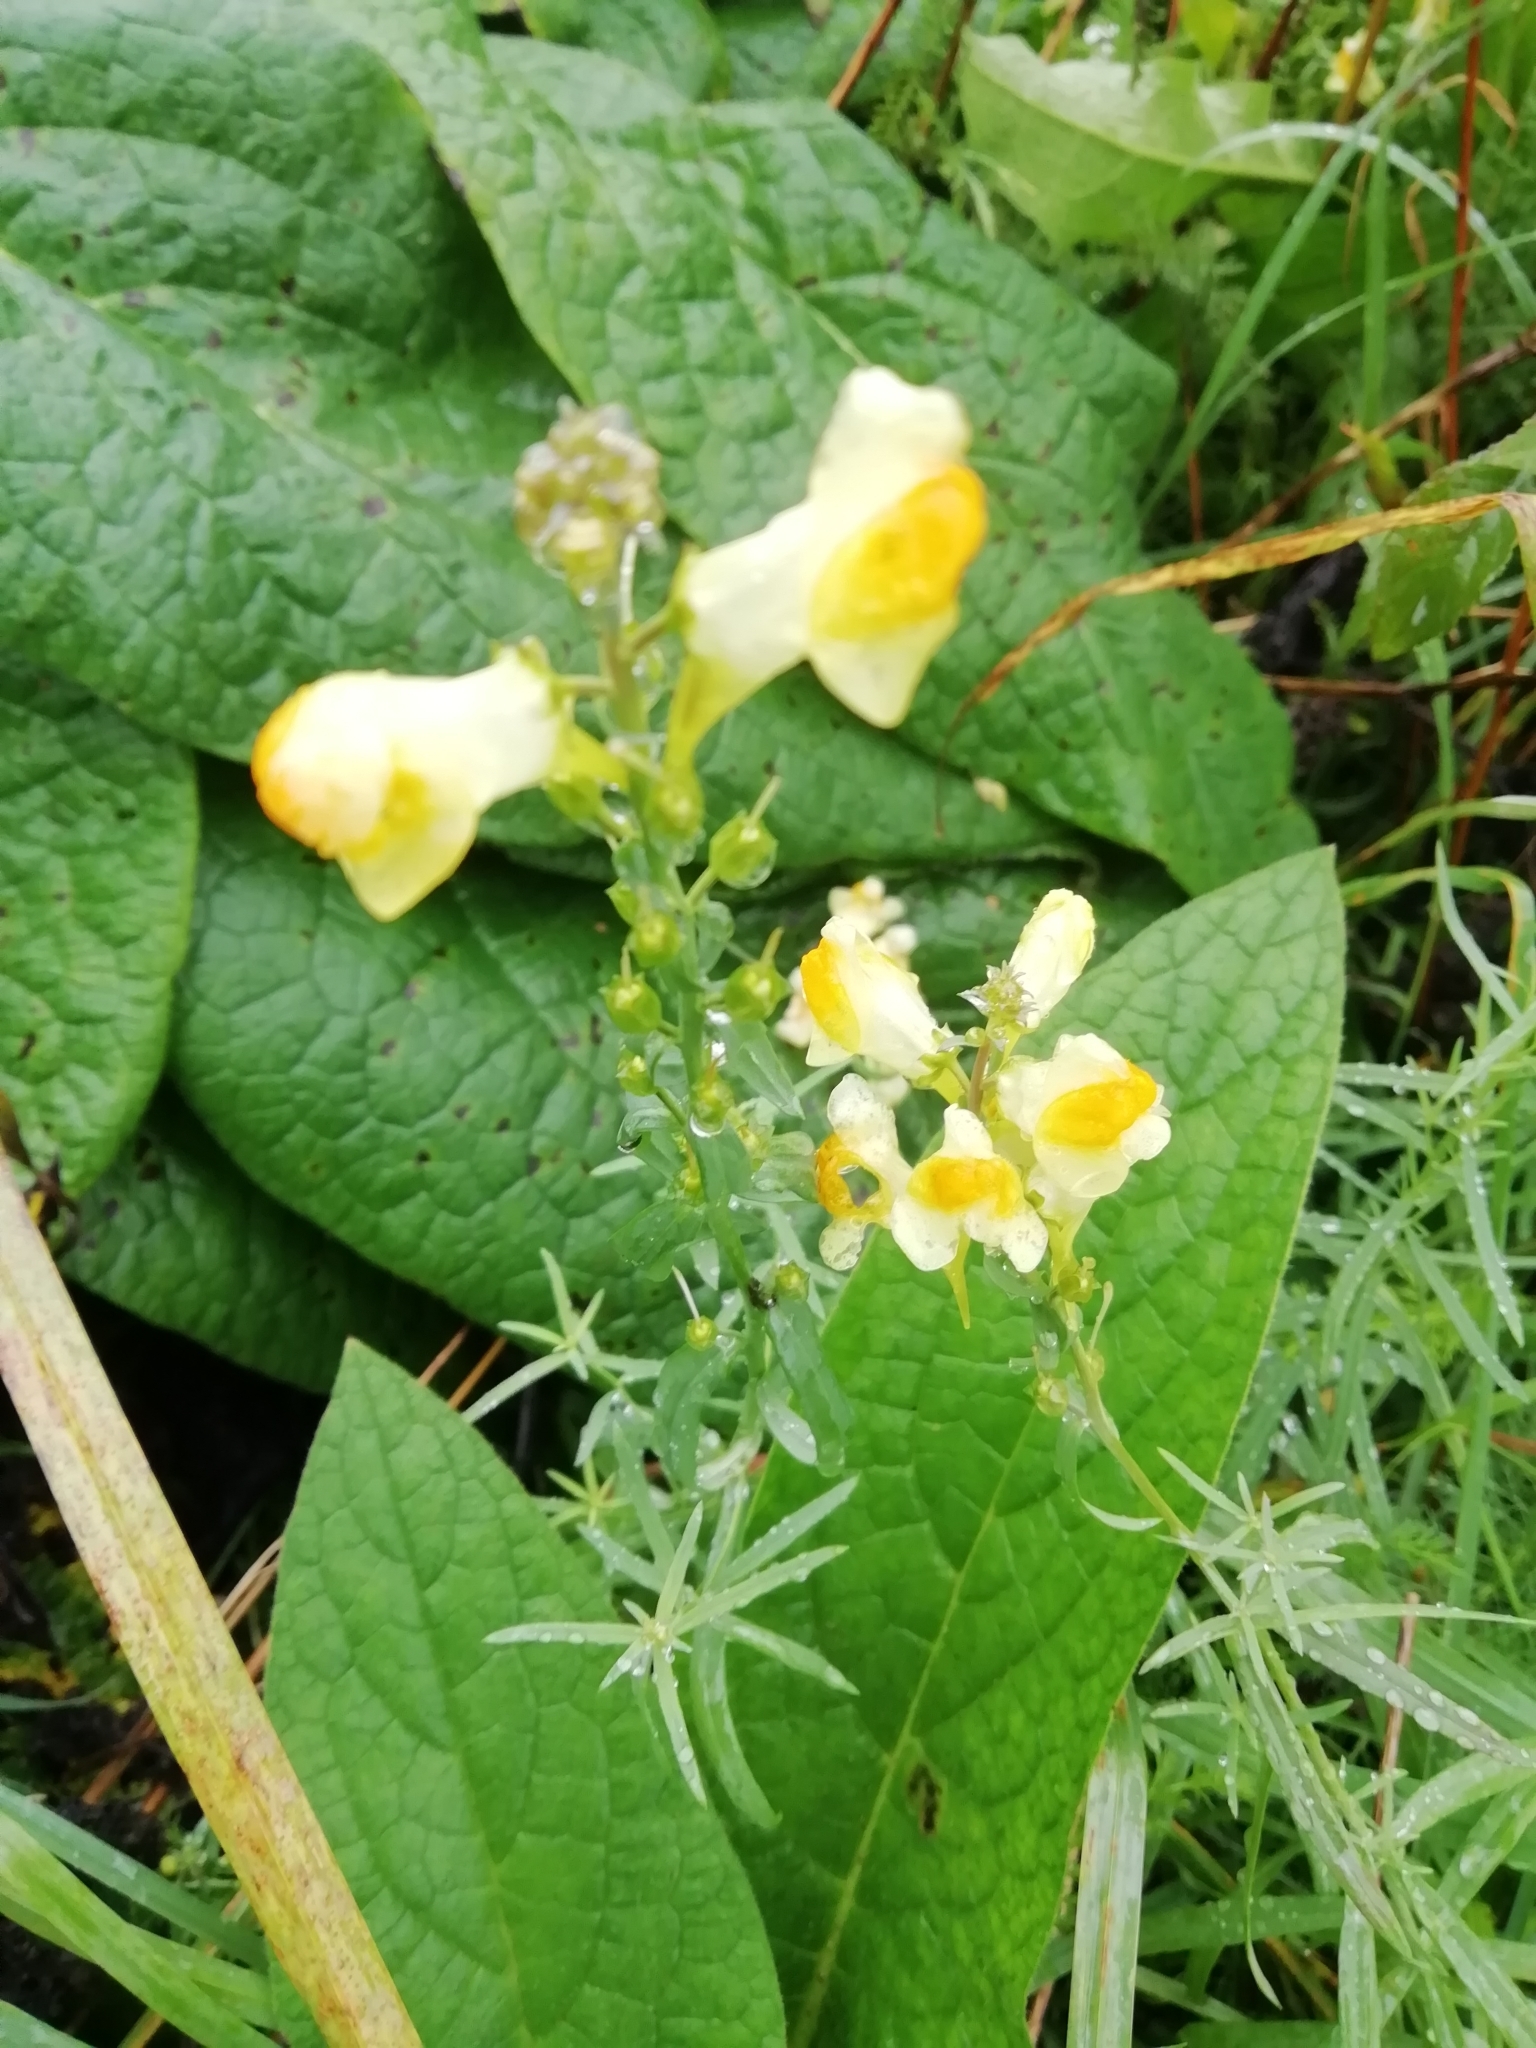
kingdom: Plantae
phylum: Tracheophyta
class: Magnoliopsida
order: Lamiales
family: Plantaginaceae
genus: Linaria
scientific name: Linaria vulgaris
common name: Butter and eggs
